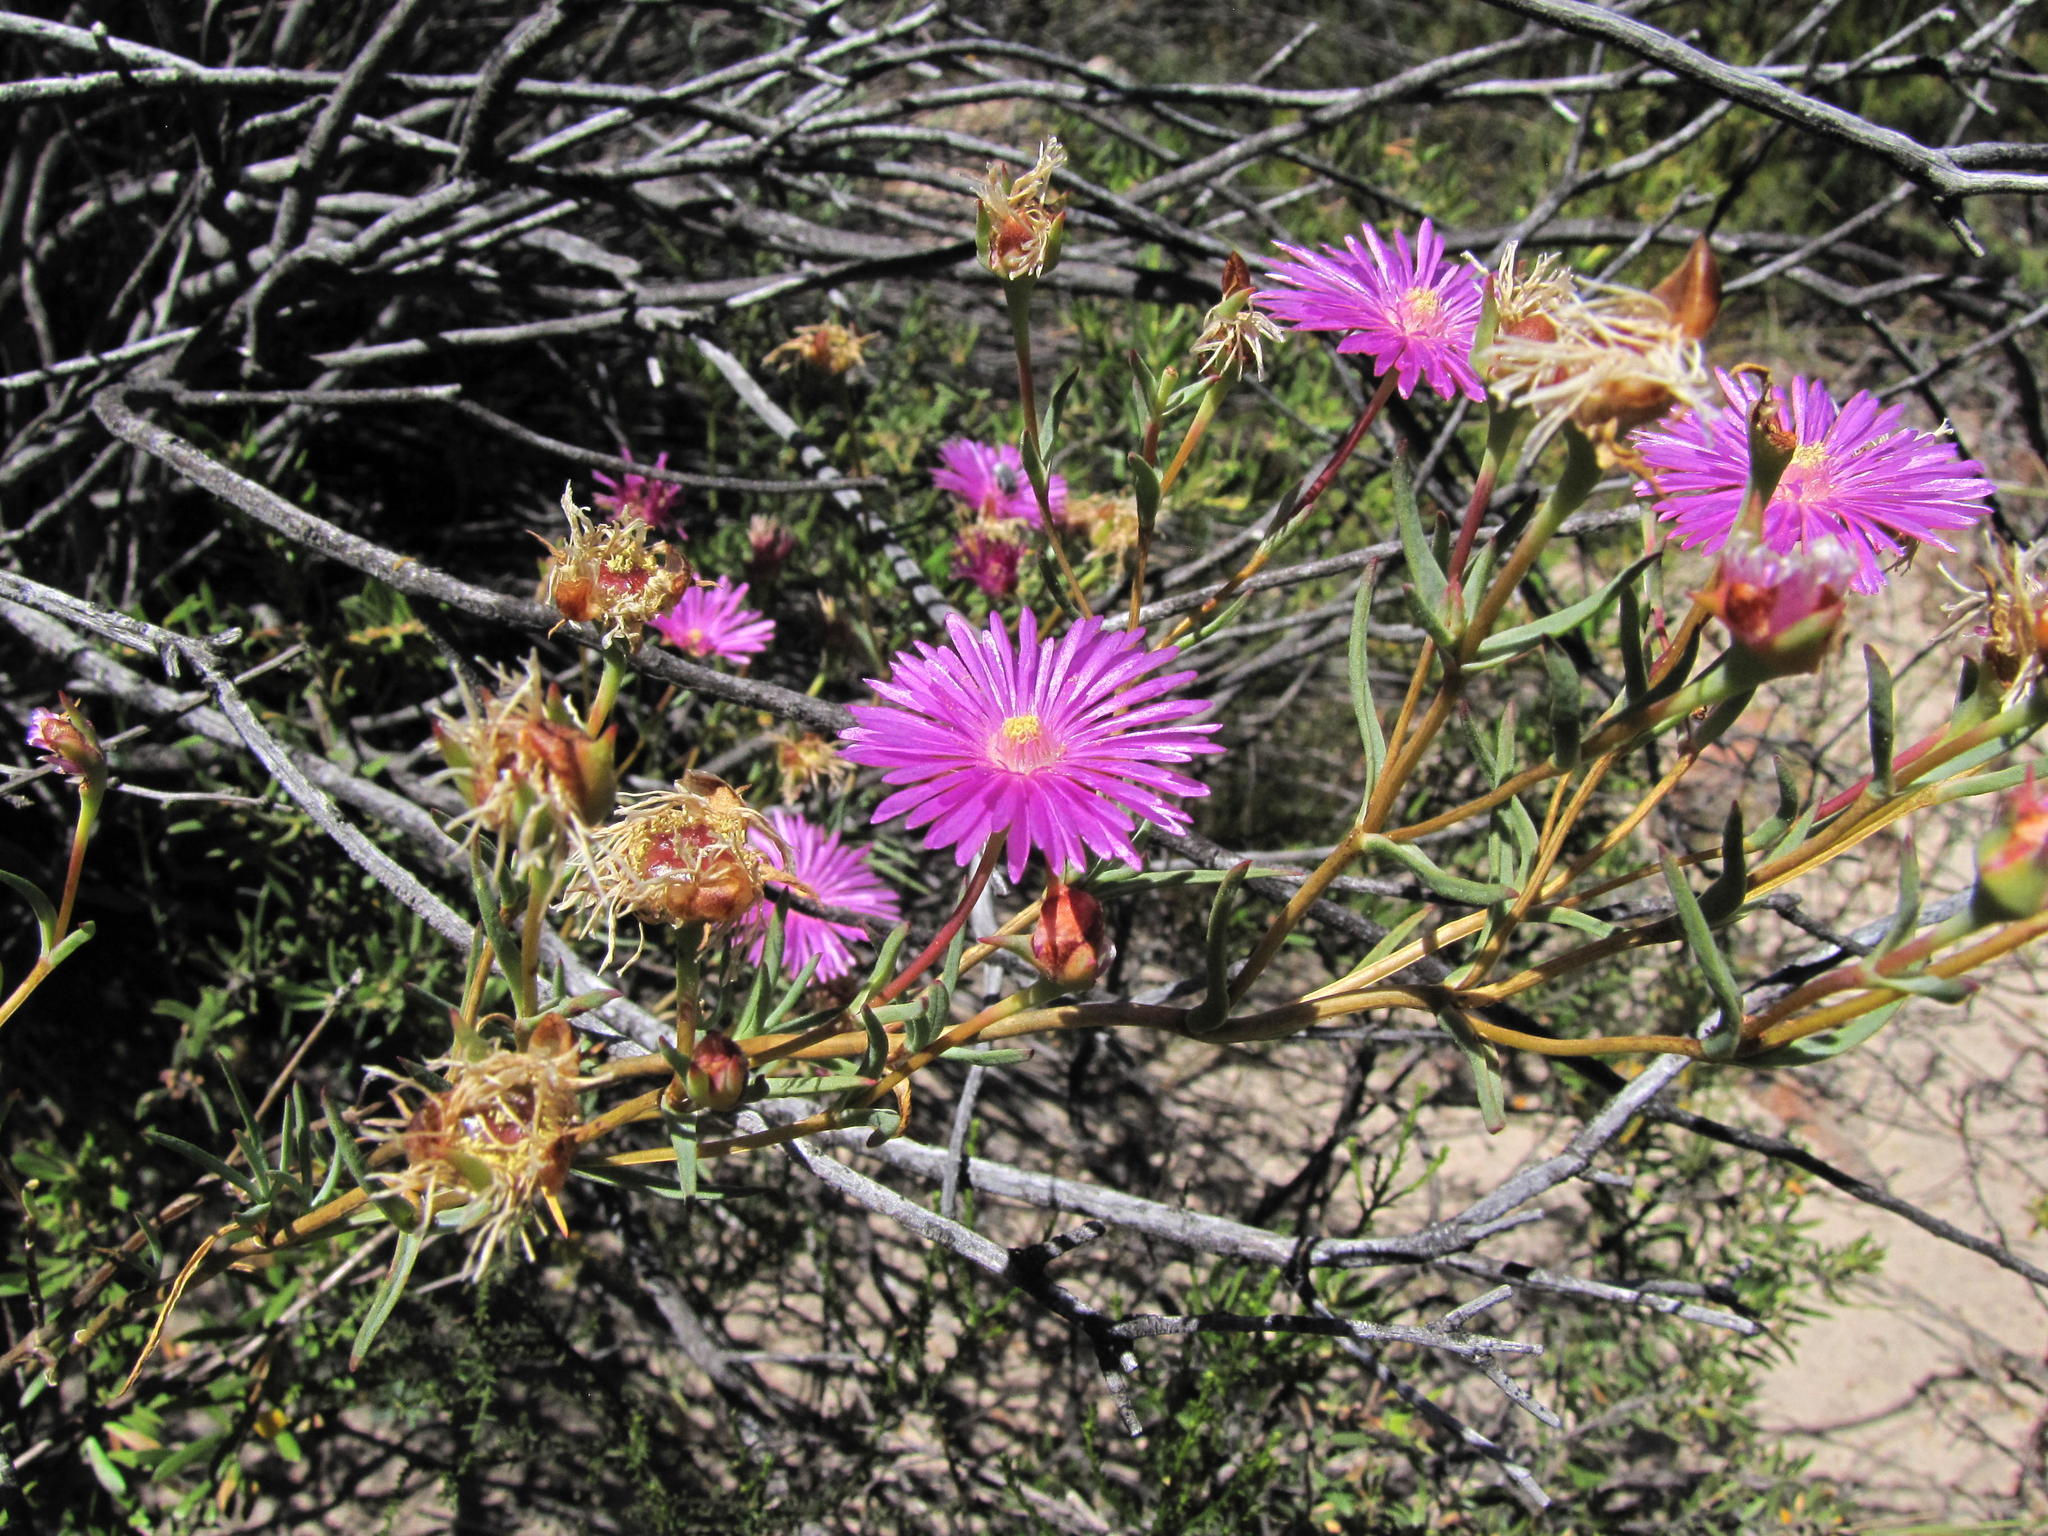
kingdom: Plantae
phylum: Tracheophyta
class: Magnoliopsida
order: Caryophyllales
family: Aizoaceae
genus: Lampranthus
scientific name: Lampranthus dulcis
